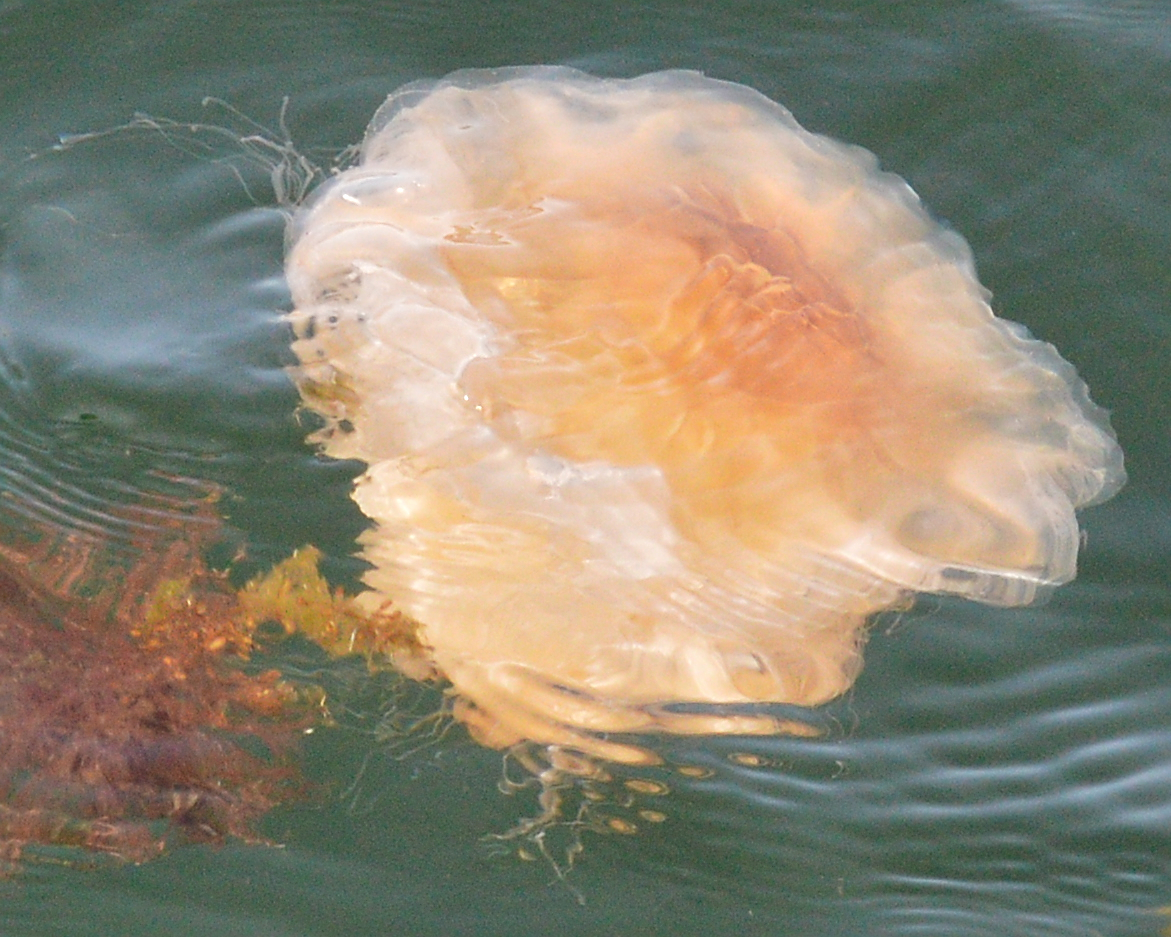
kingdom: Animalia
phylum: Cnidaria
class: Scyphozoa
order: Semaeostomeae
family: Cyaneidae
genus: Cyanea
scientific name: Cyanea capillata
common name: Lion's mane jellyfish
